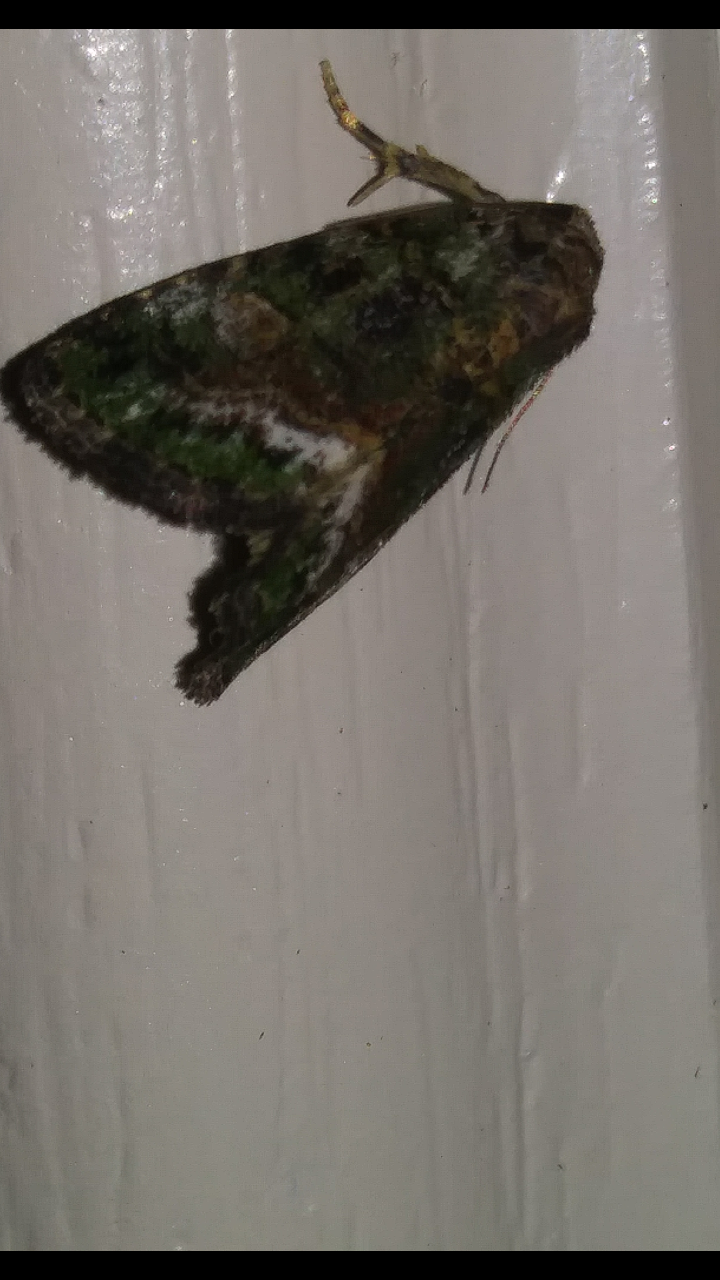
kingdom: Animalia
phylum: Arthropoda
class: Insecta
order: Lepidoptera
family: Noctuidae
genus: Lithacodia
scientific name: Lithacodia musta
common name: Small mossy glyph
